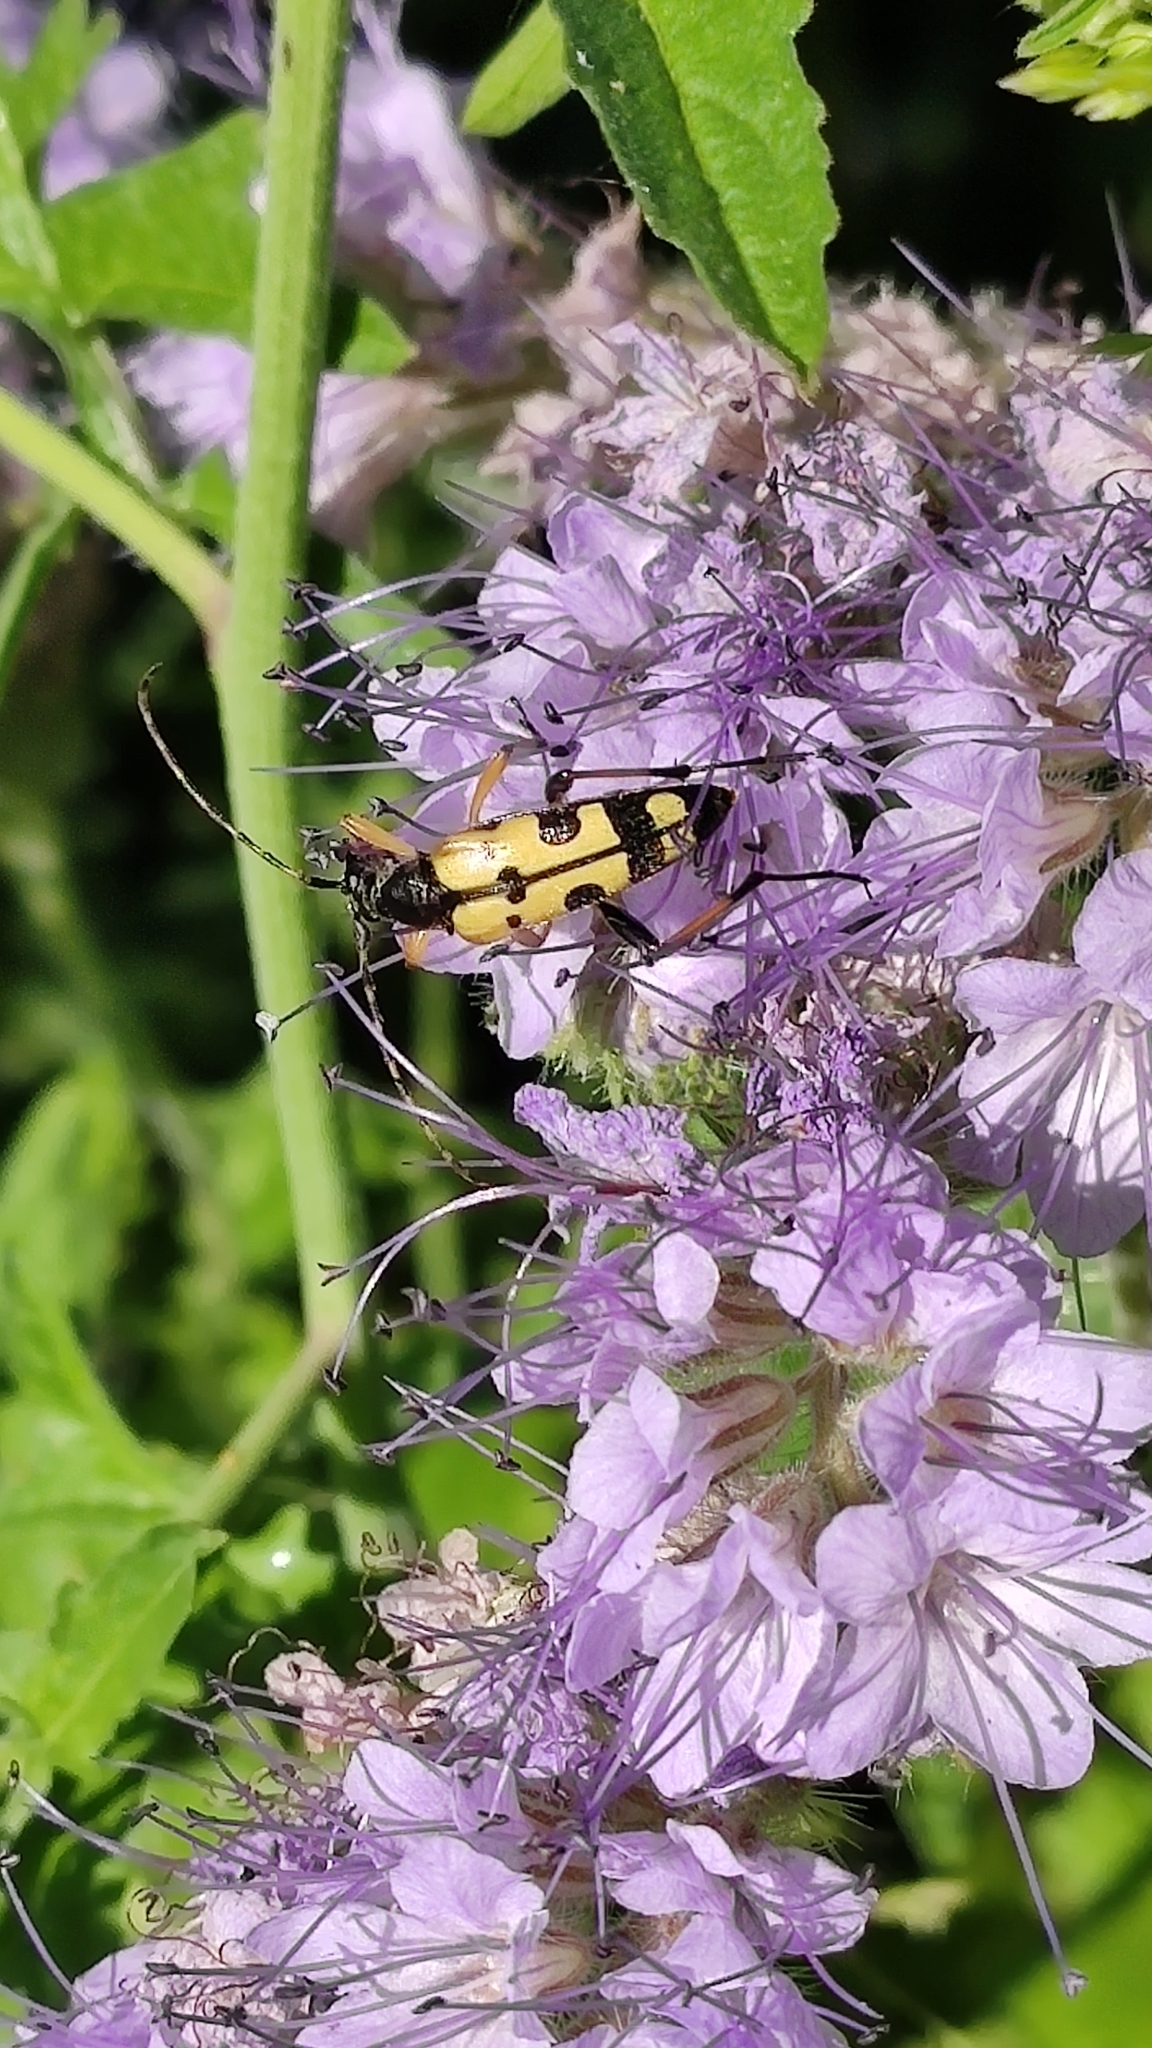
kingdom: Animalia
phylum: Arthropoda
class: Insecta
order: Coleoptera
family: Cerambycidae
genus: Rutpela
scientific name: Rutpela maculata
